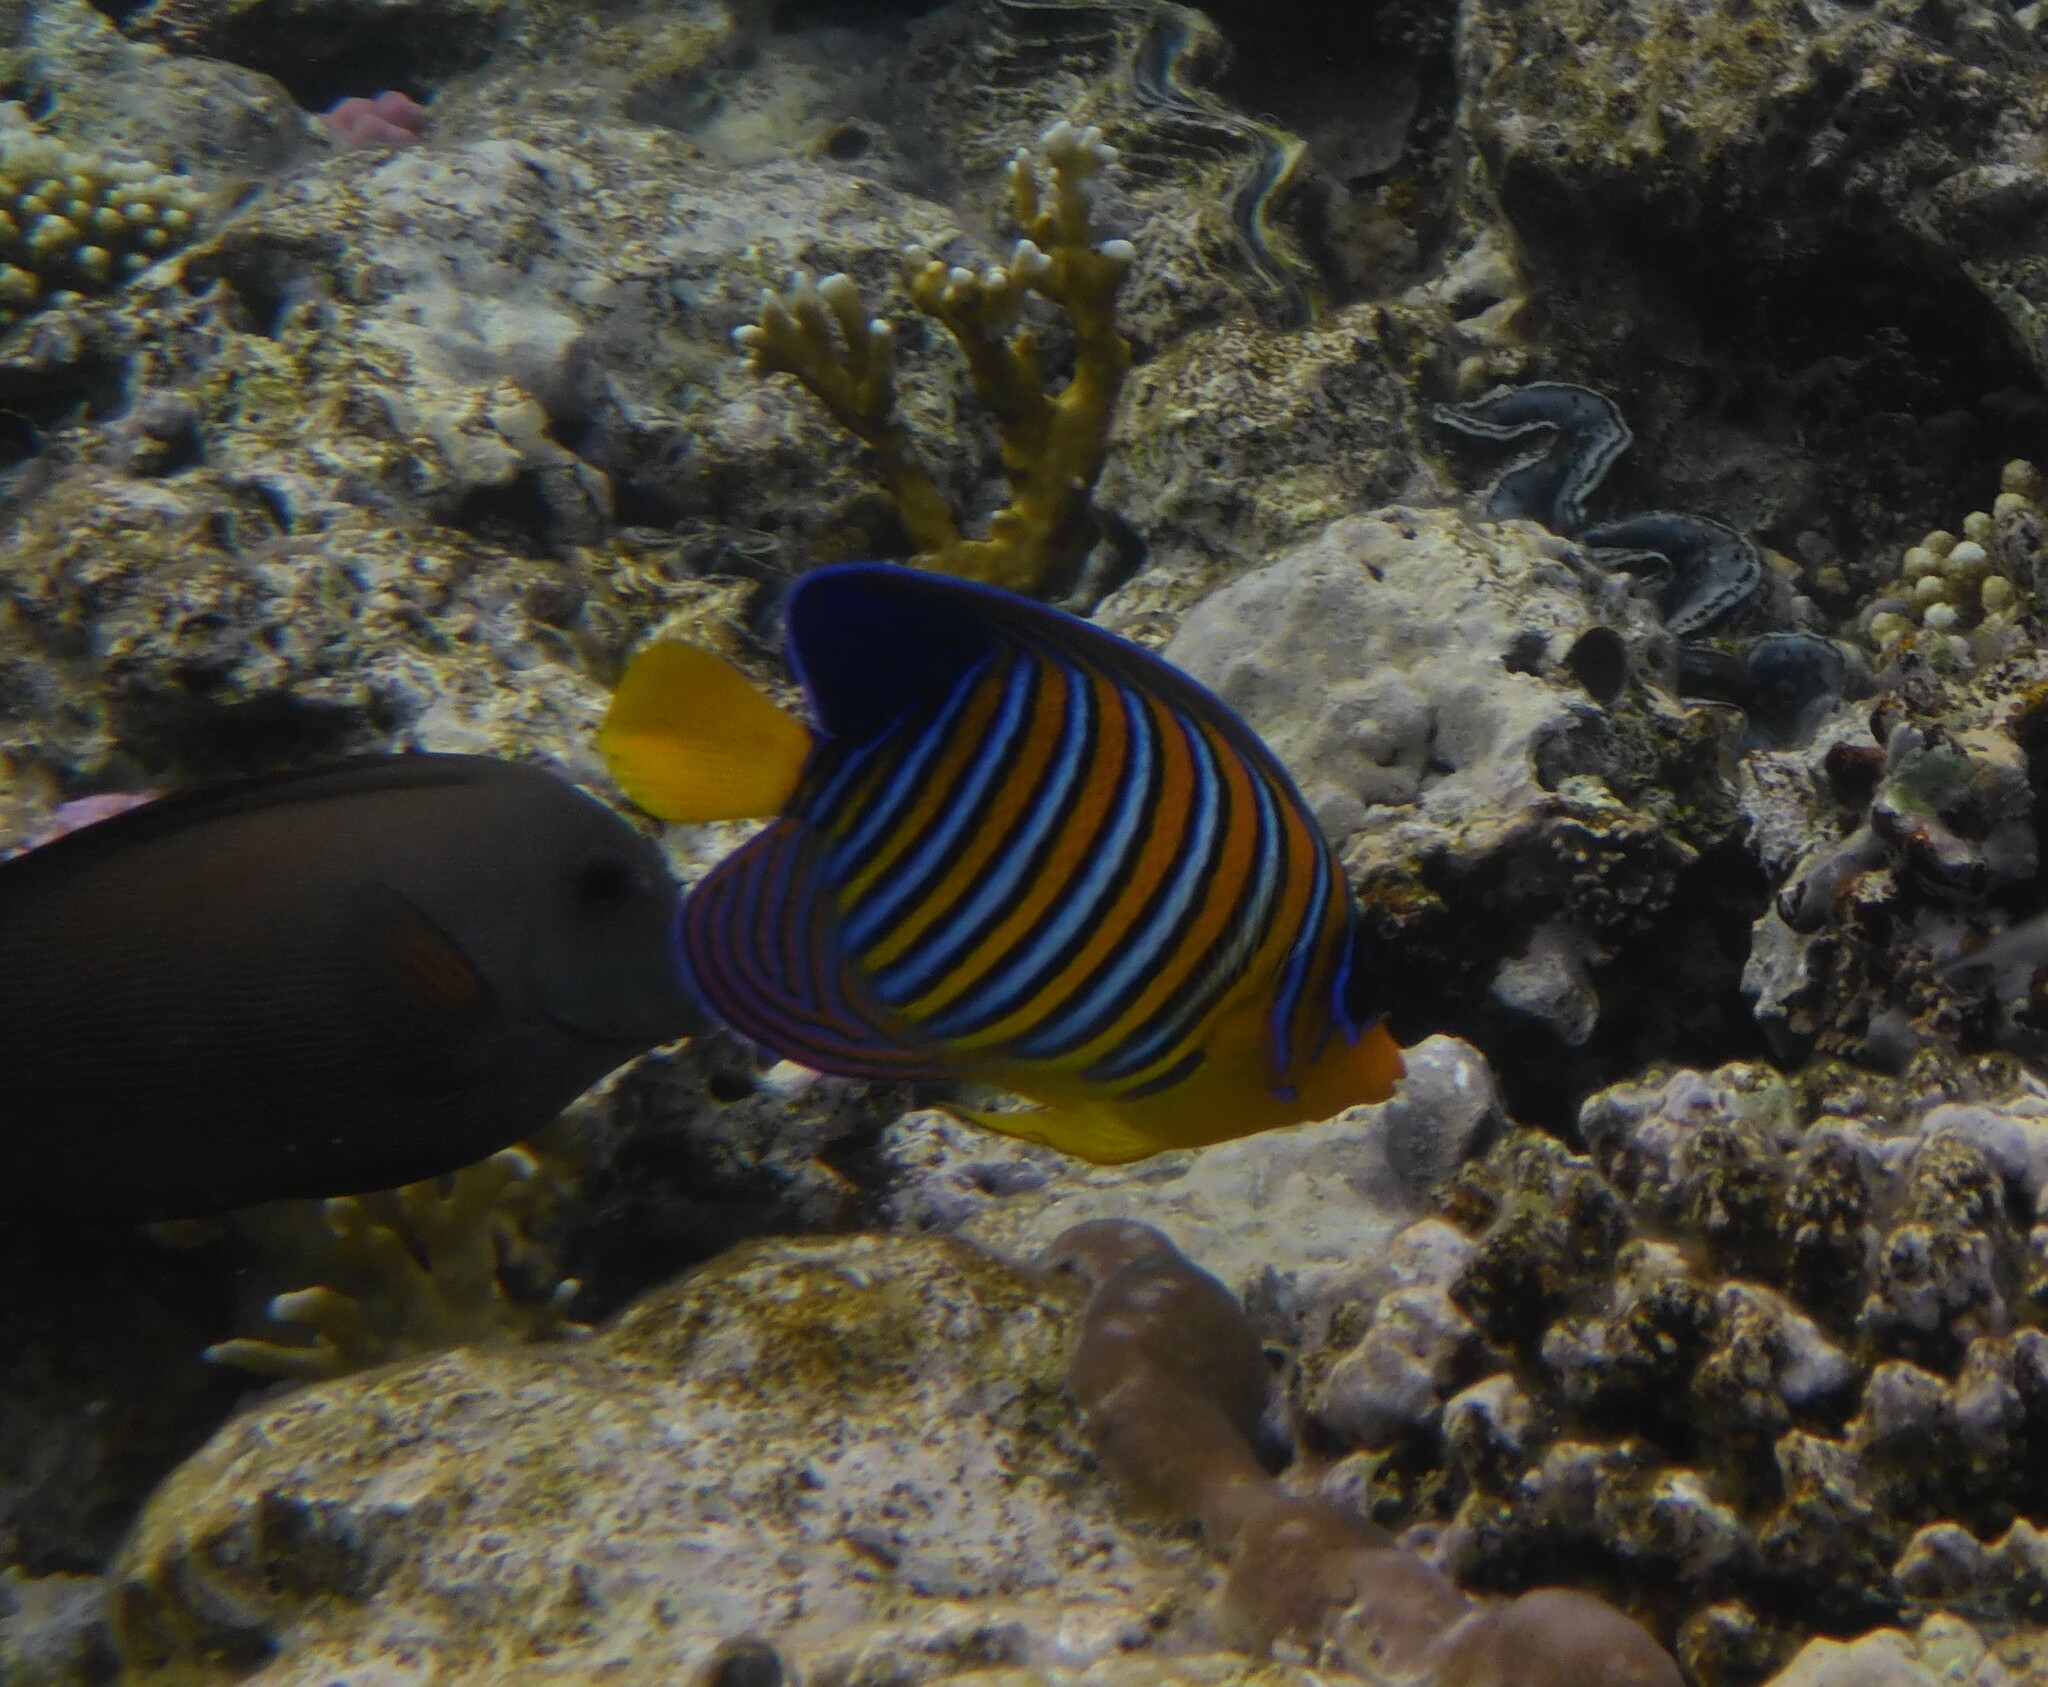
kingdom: Animalia
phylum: Chordata
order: Perciformes
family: Pomacanthidae
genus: Pygoplites
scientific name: Pygoplites diacanthus
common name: Regal angelfish
